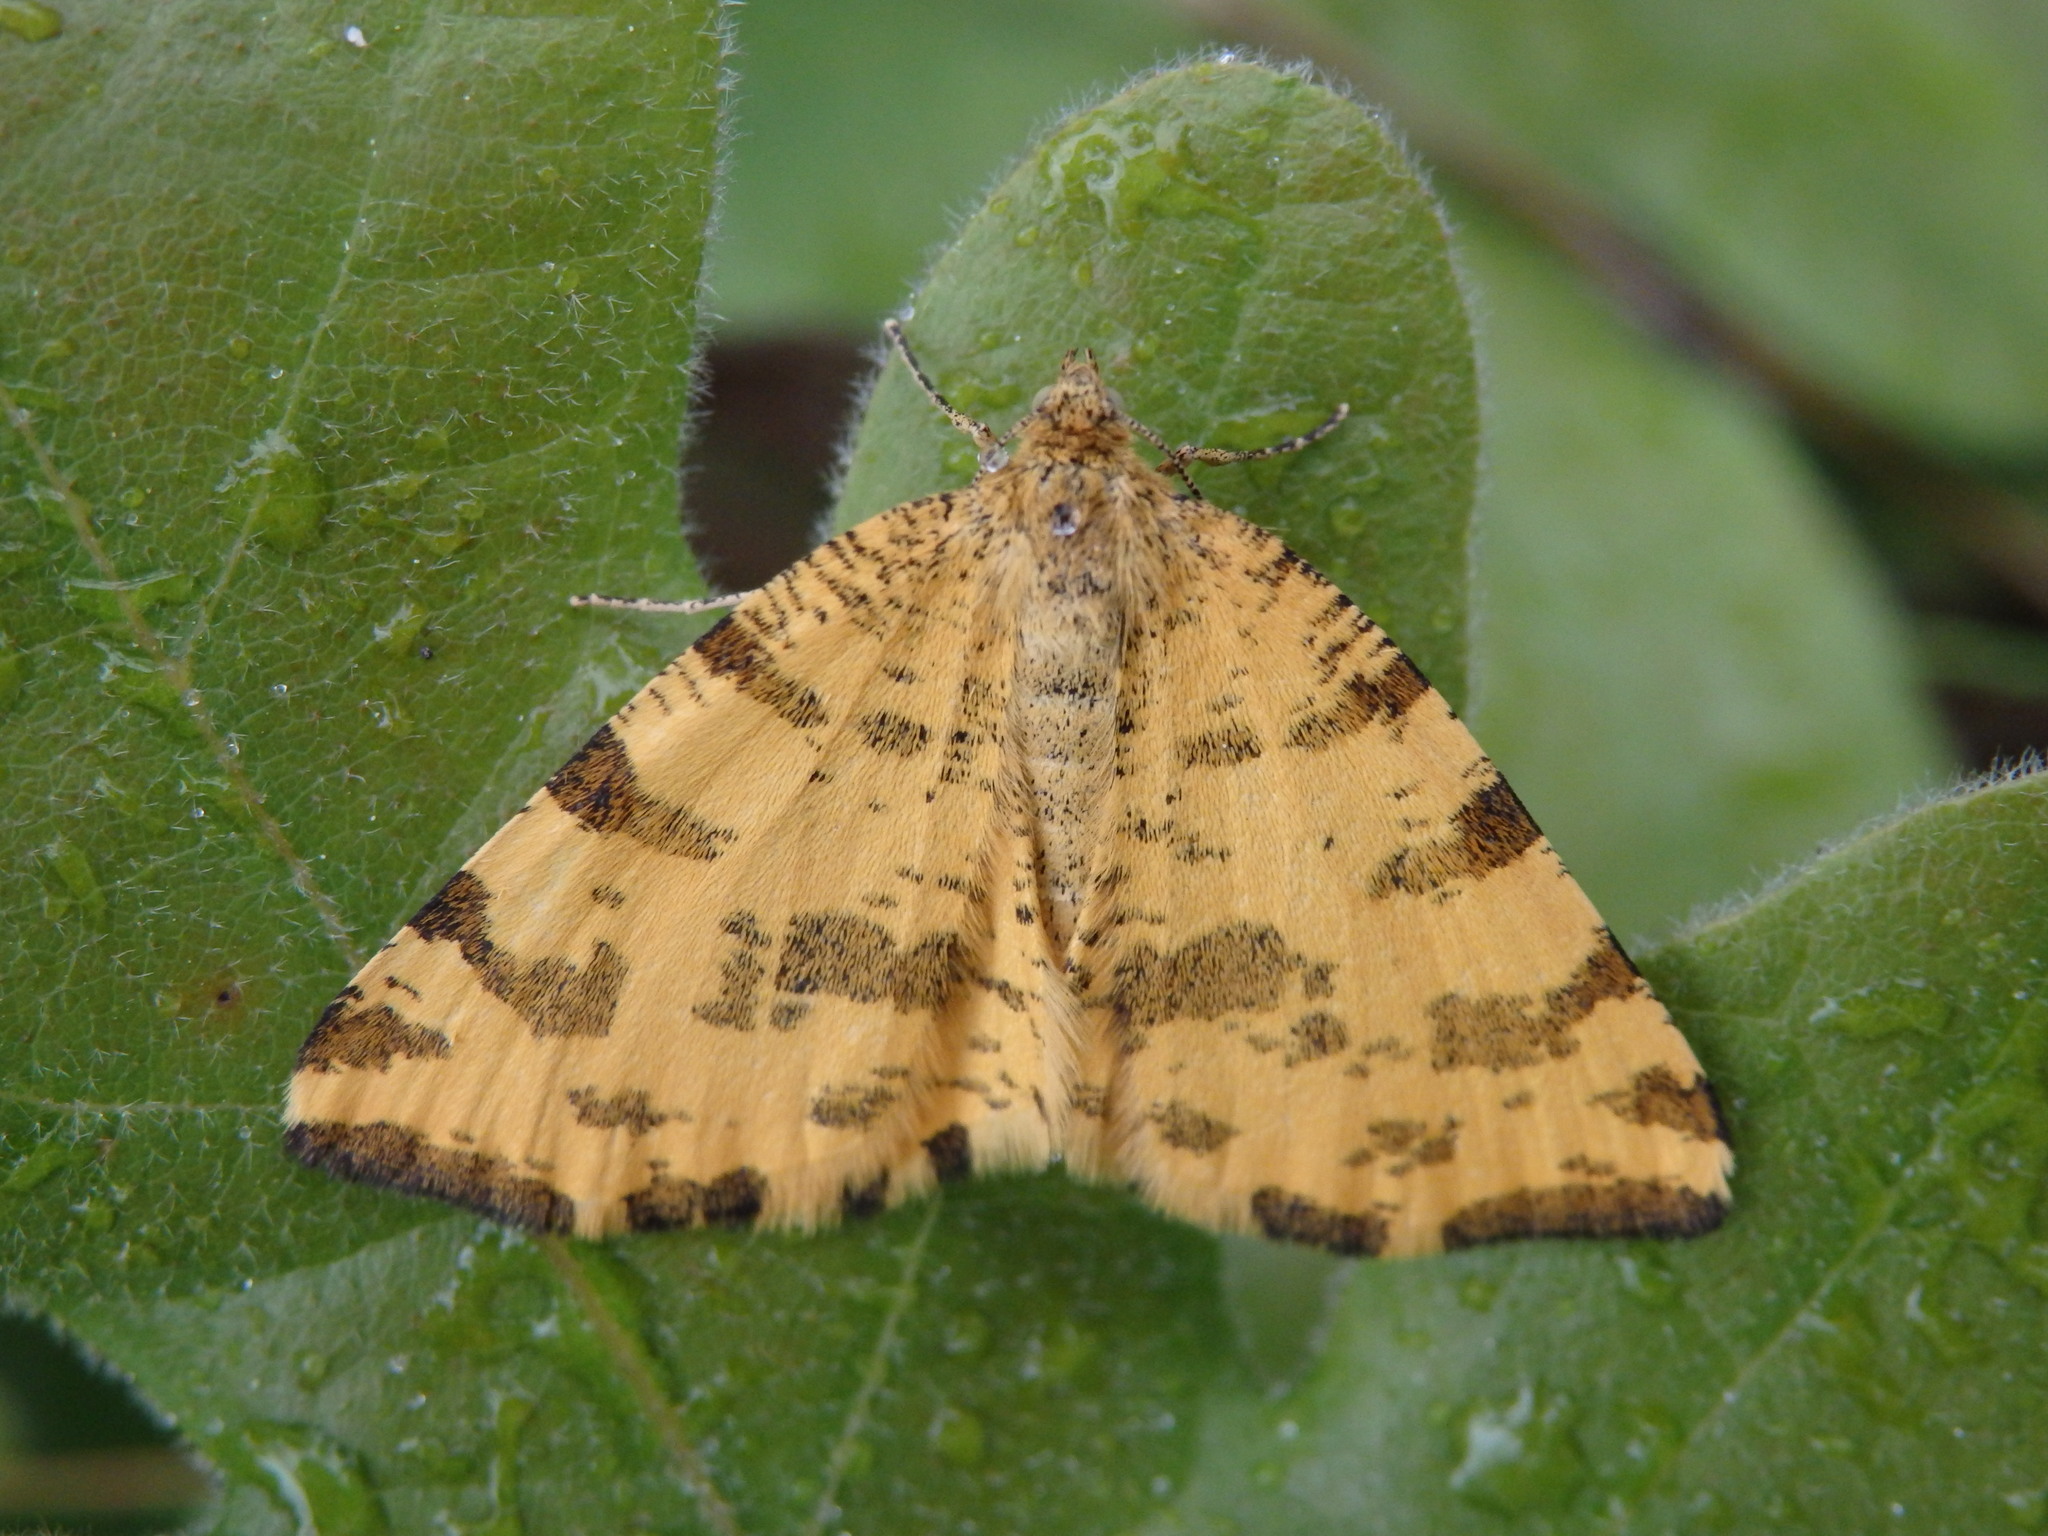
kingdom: Animalia
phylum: Arthropoda
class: Insecta
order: Lepidoptera
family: Geometridae
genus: Pseudopanthera
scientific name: Pseudopanthera macularia
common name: Speckled yellow
